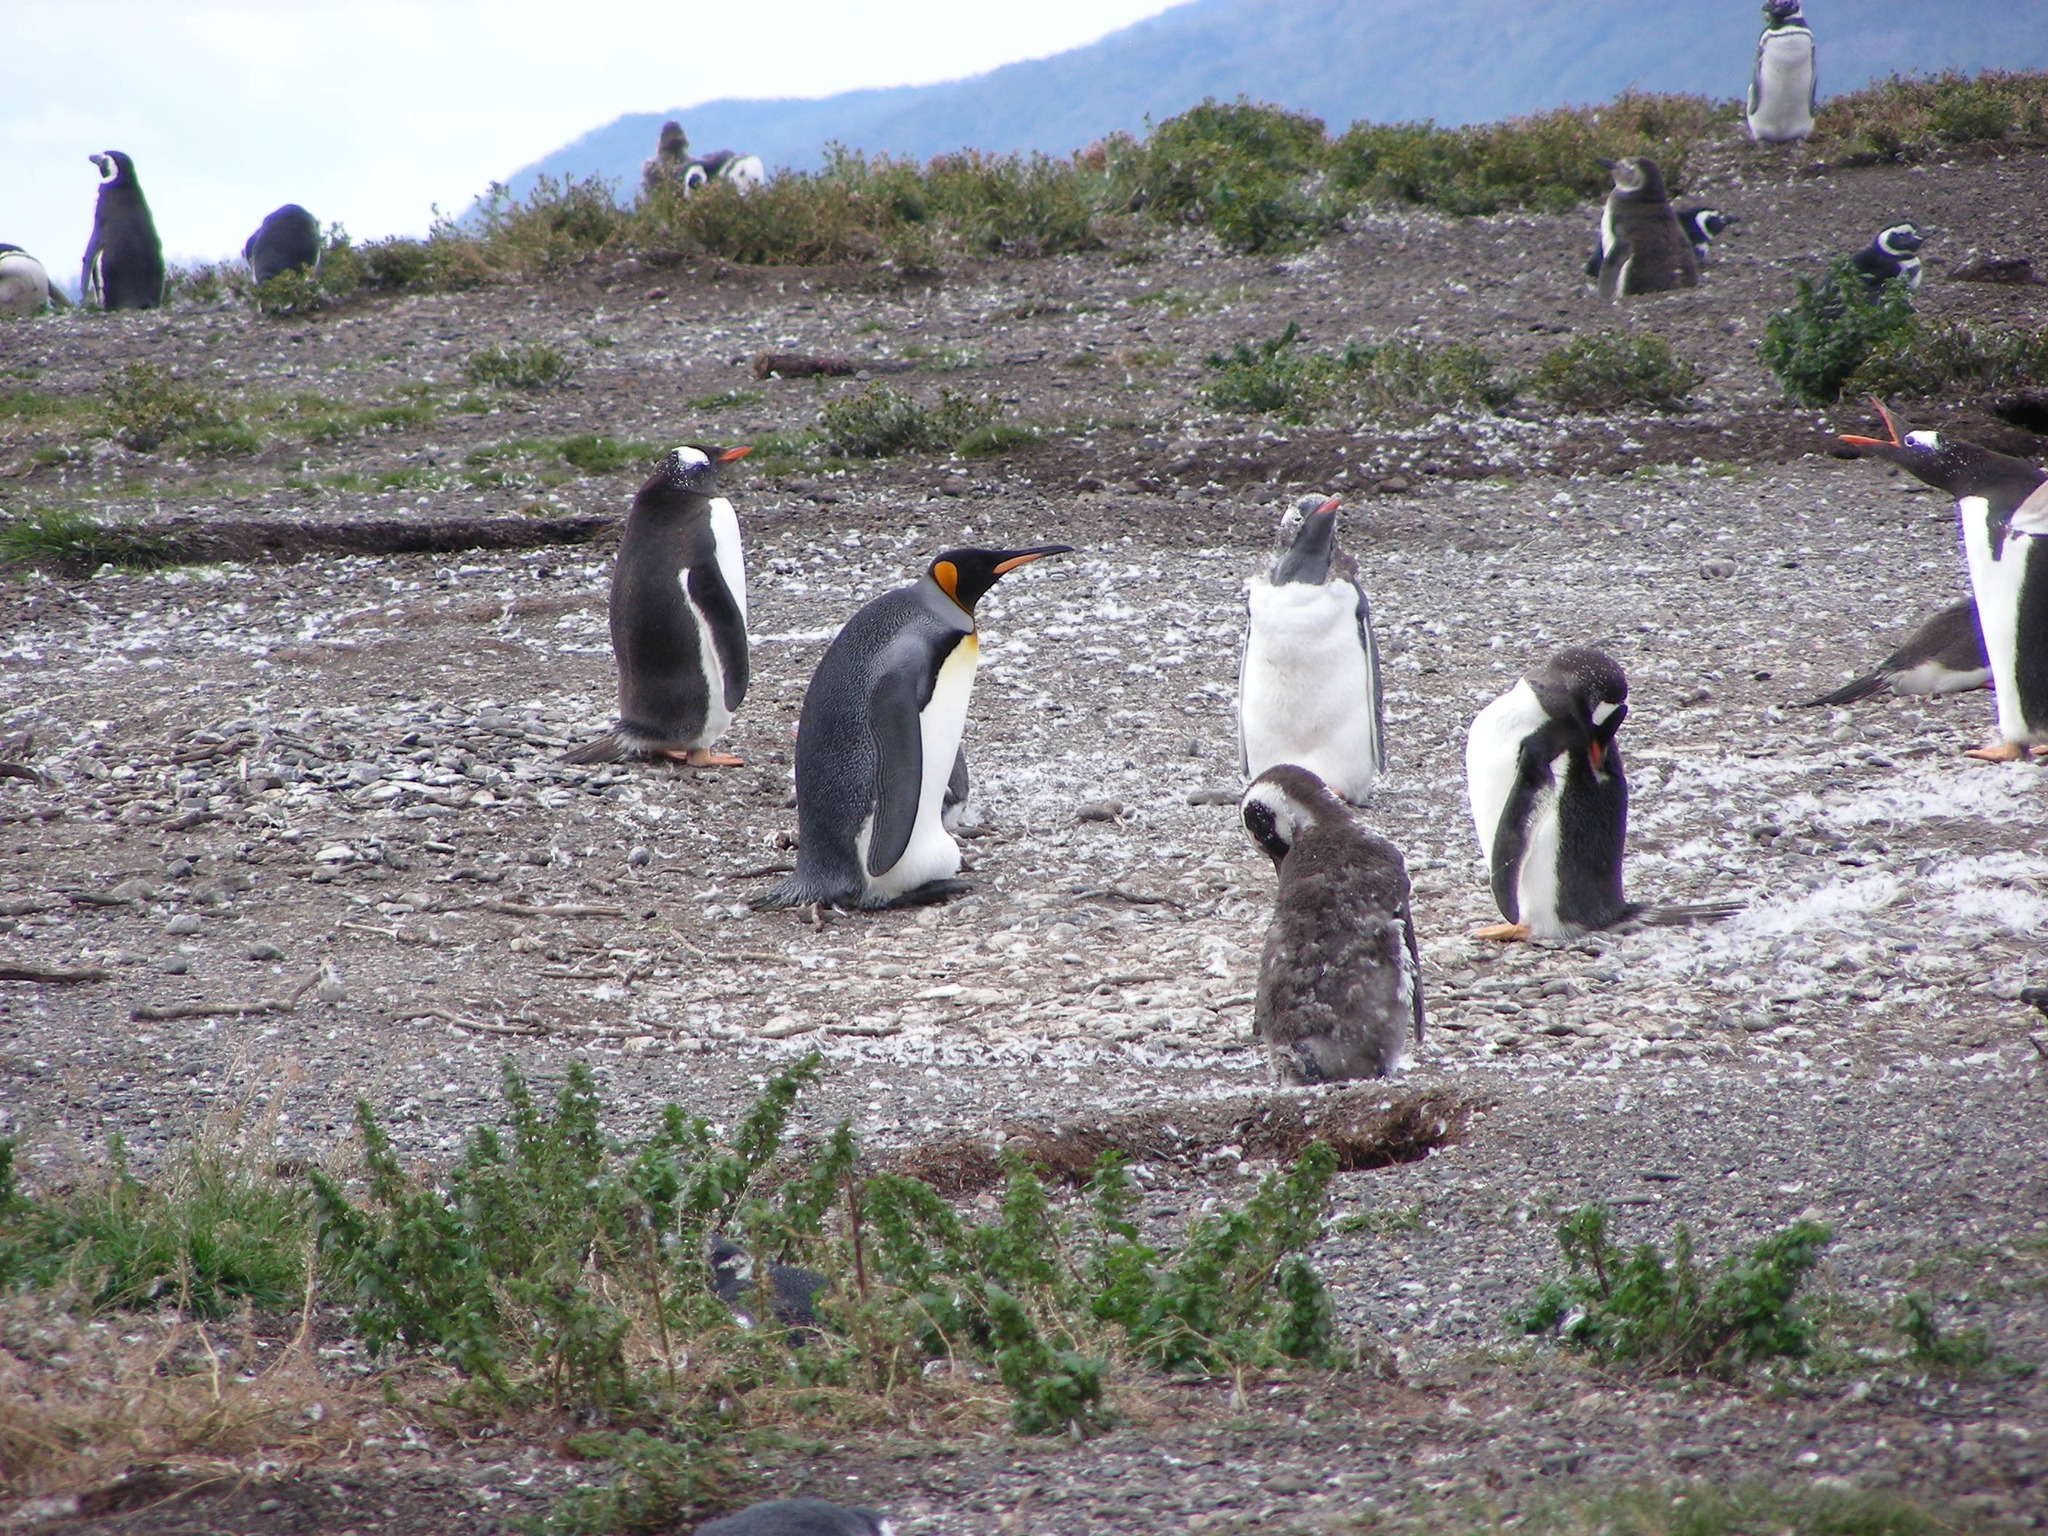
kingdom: Animalia
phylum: Chordata
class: Aves
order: Sphenisciformes
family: Spheniscidae
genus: Aptenodytes
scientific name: Aptenodytes patagonicus
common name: King penguin
